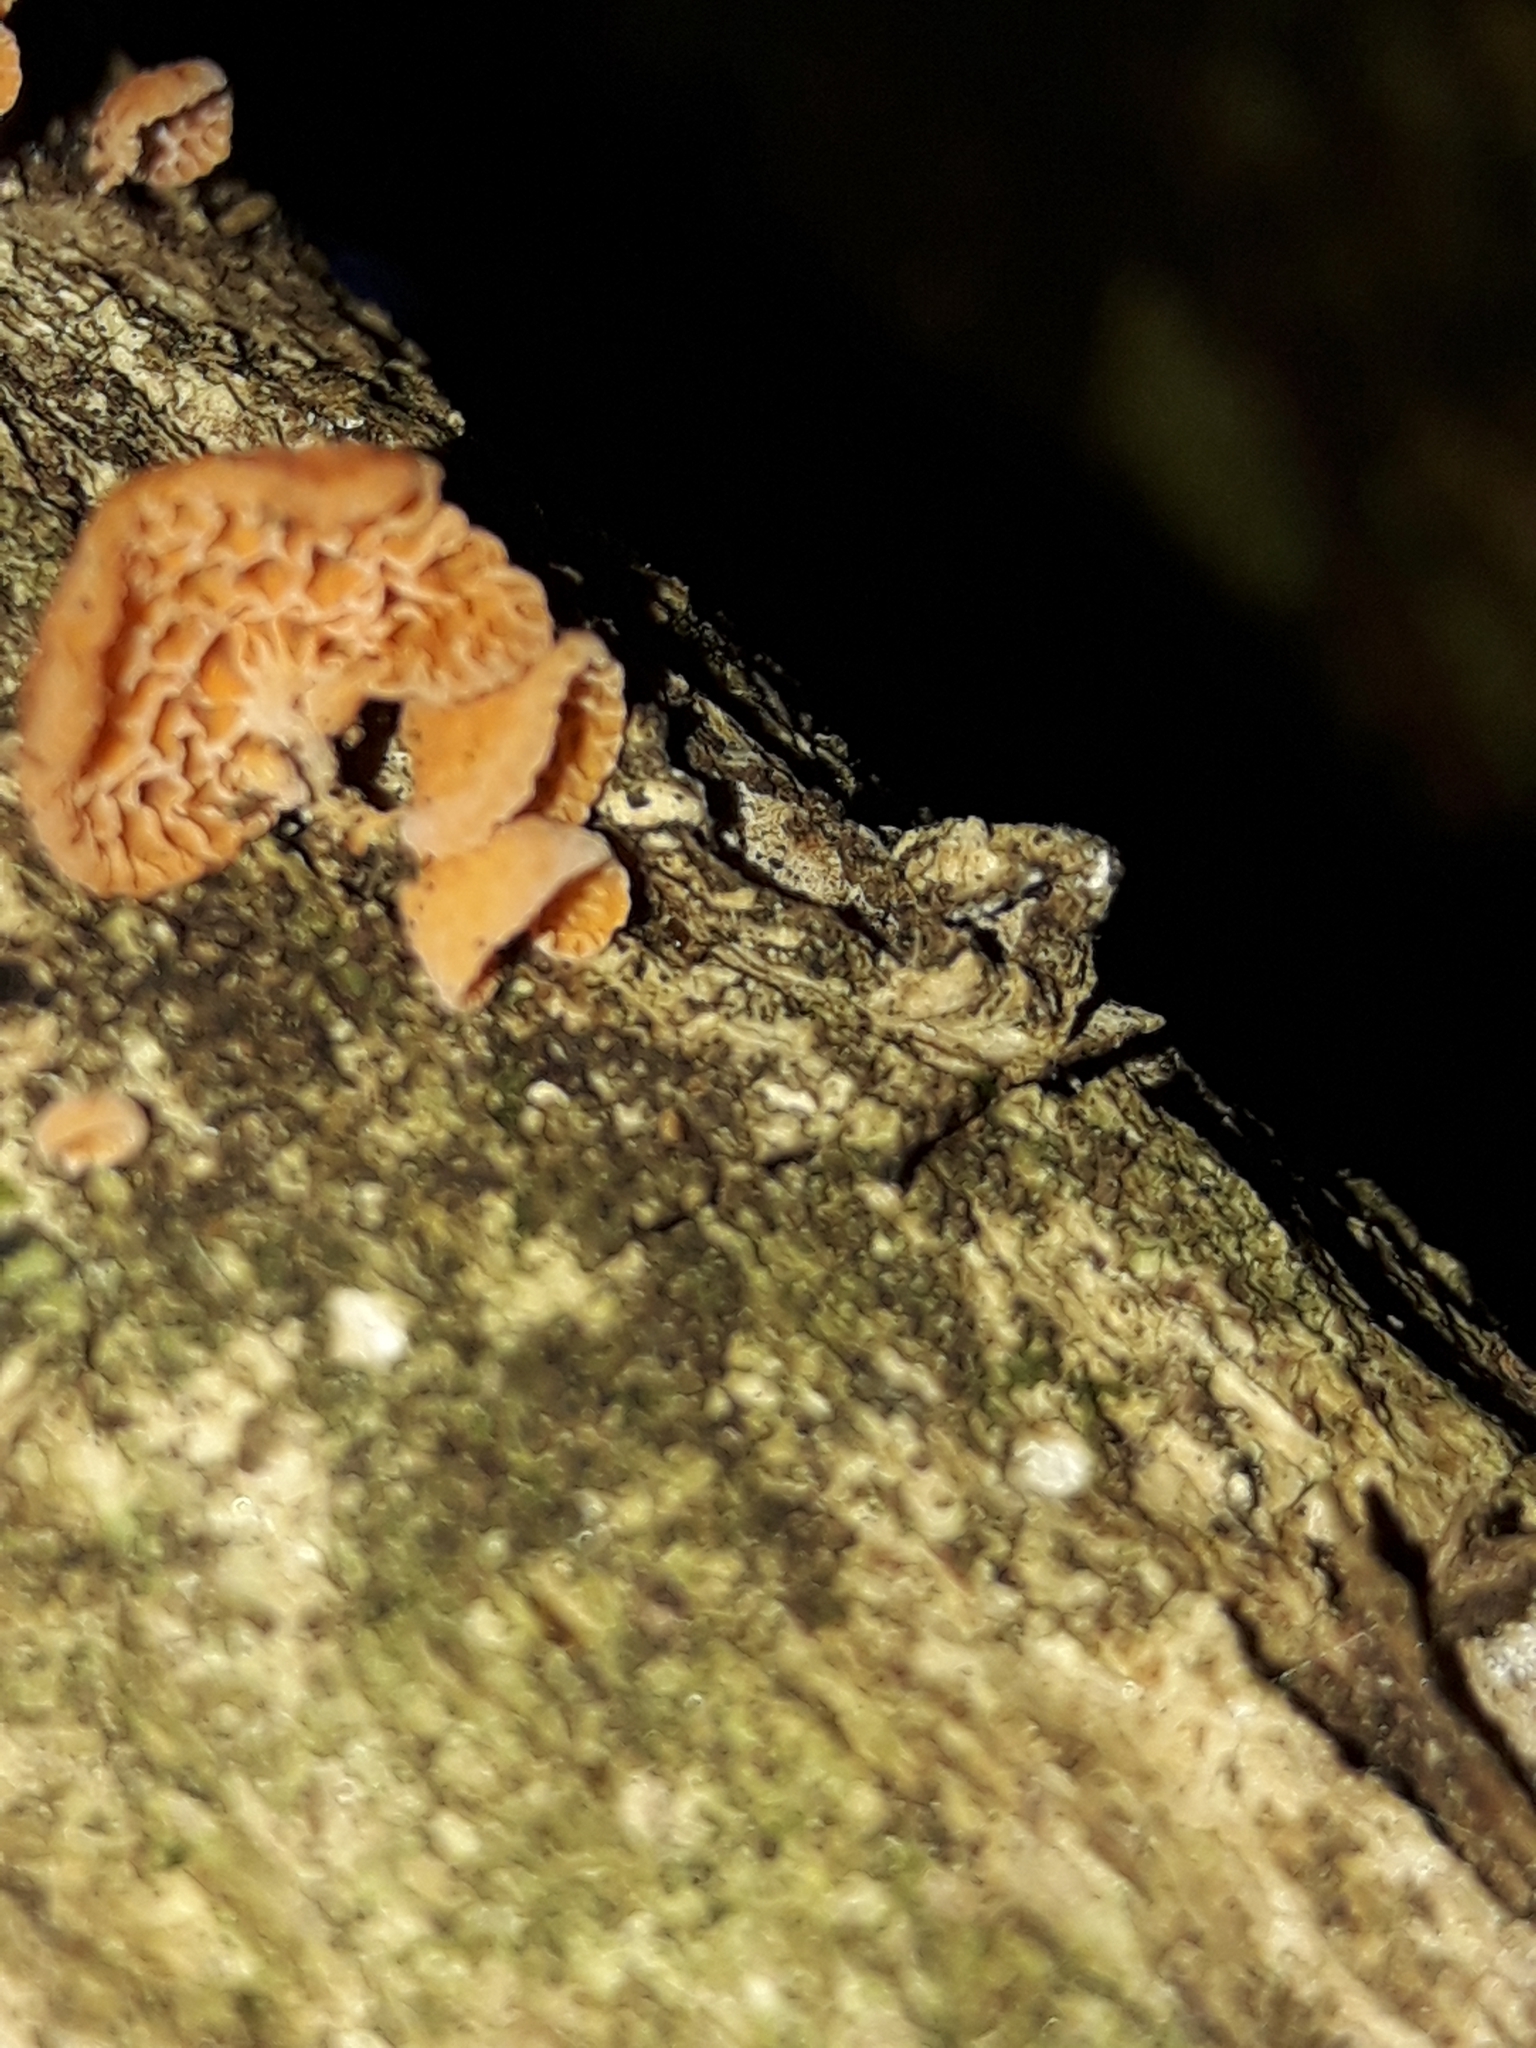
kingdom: Fungi
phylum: Basidiomycota
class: Agaricomycetes
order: Agaricales
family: Mycenaceae
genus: Favolaschia
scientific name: Favolaschia claudopus
